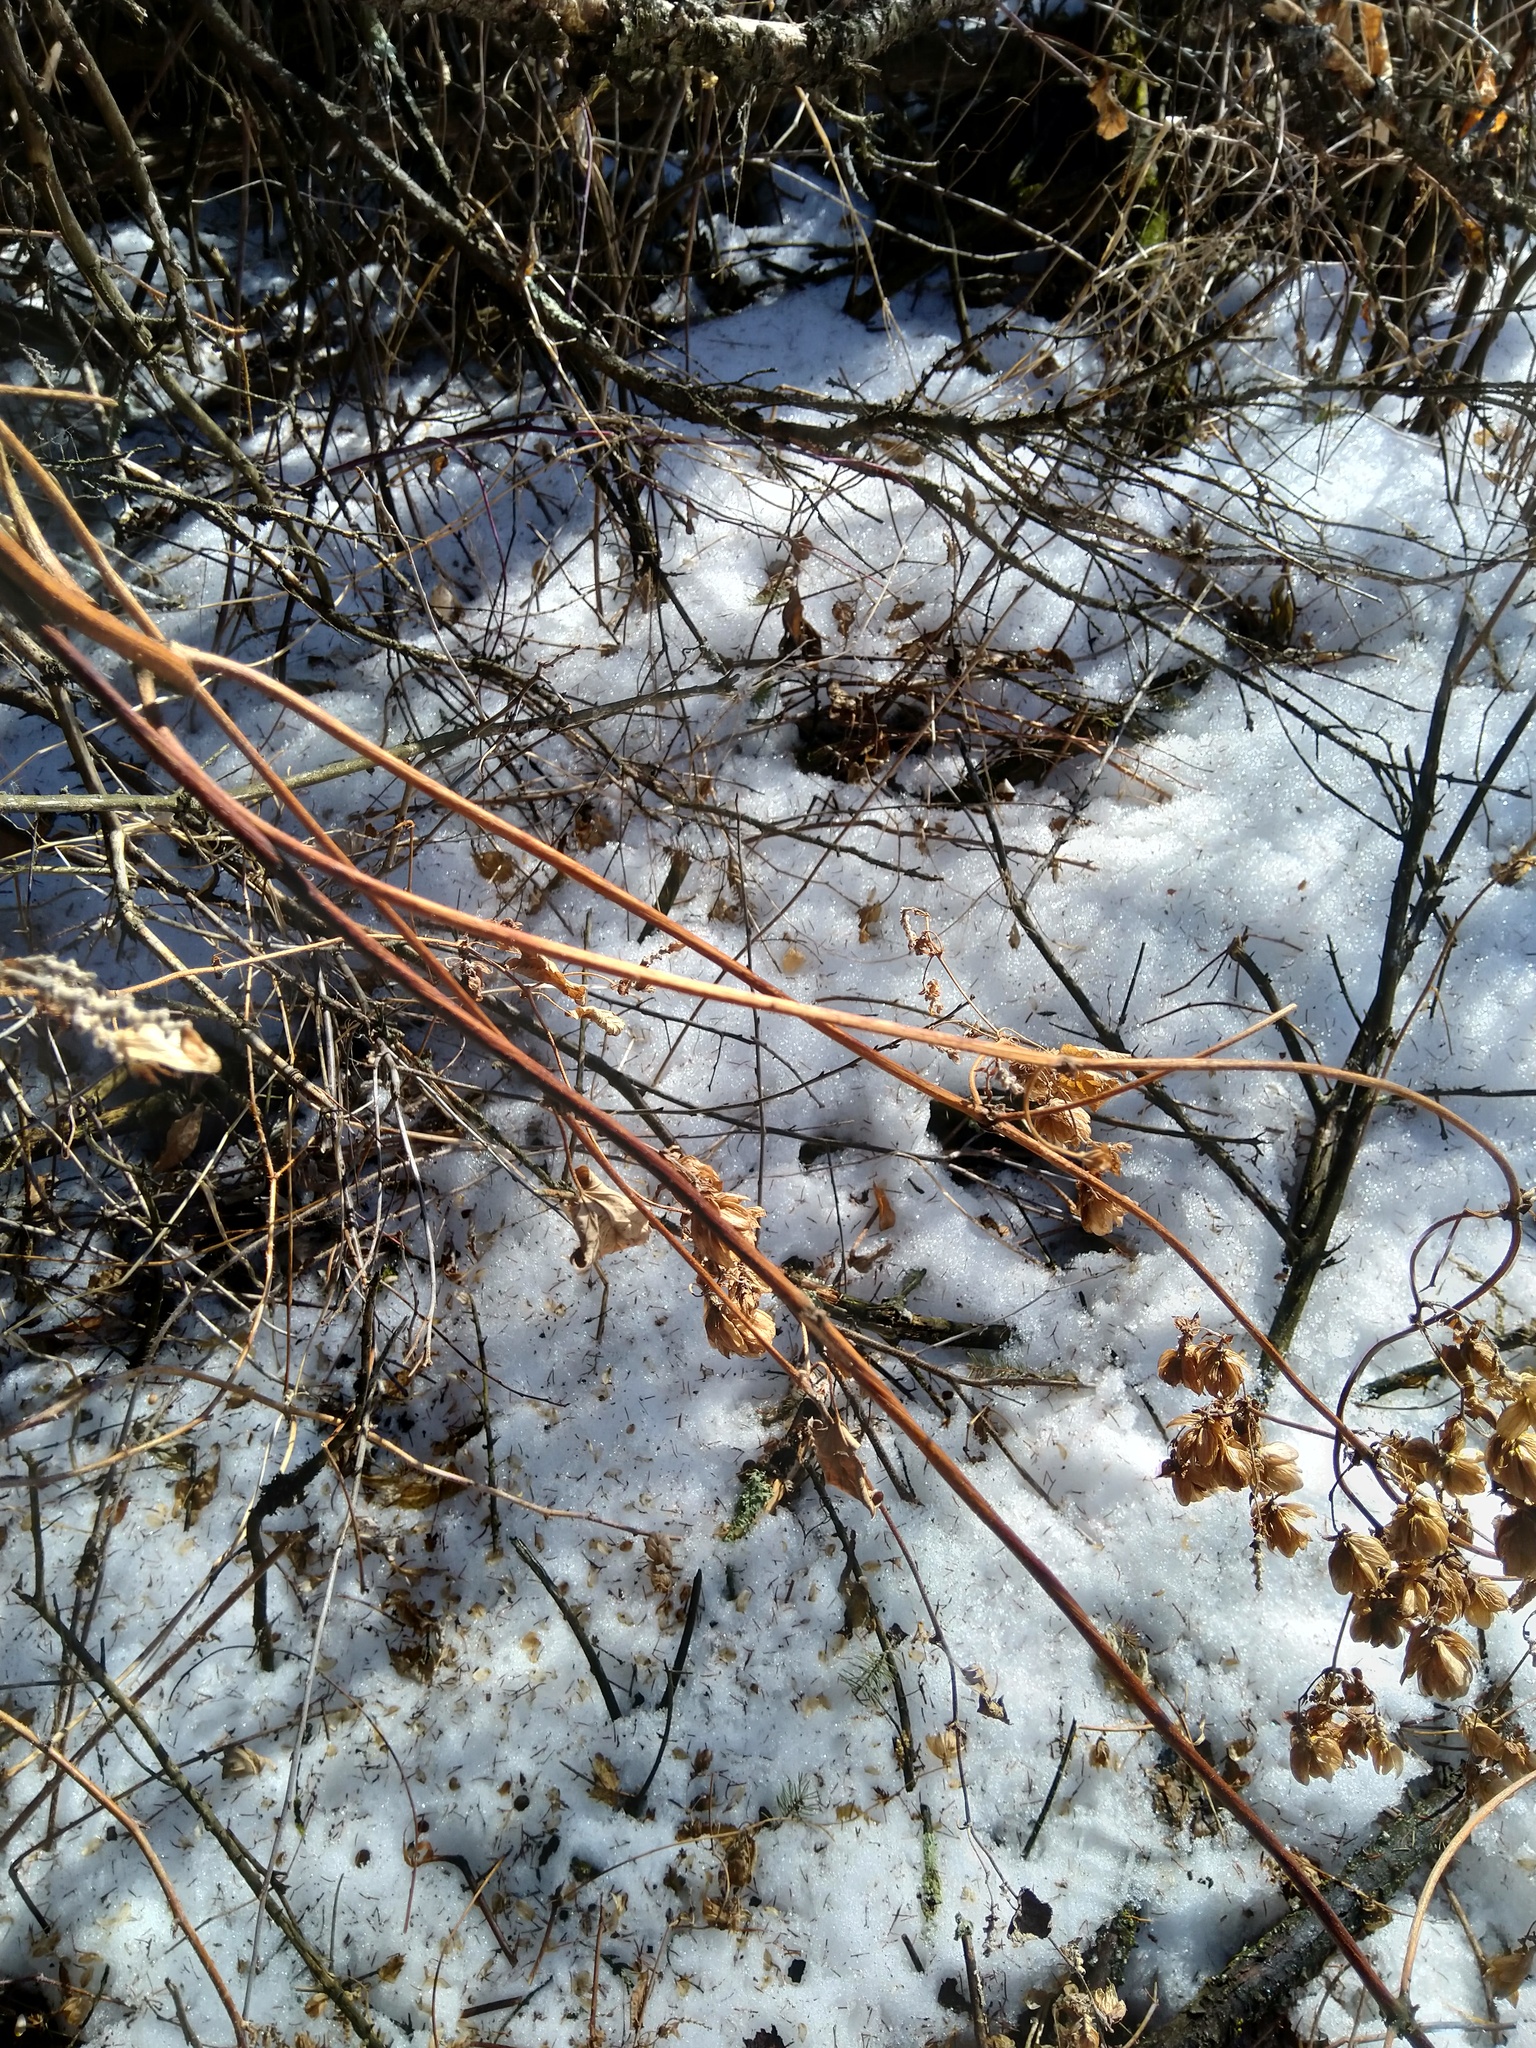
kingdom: Plantae
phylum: Tracheophyta
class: Magnoliopsida
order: Rosales
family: Cannabaceae
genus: Humulus
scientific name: Humulus lupulus
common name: Hop
